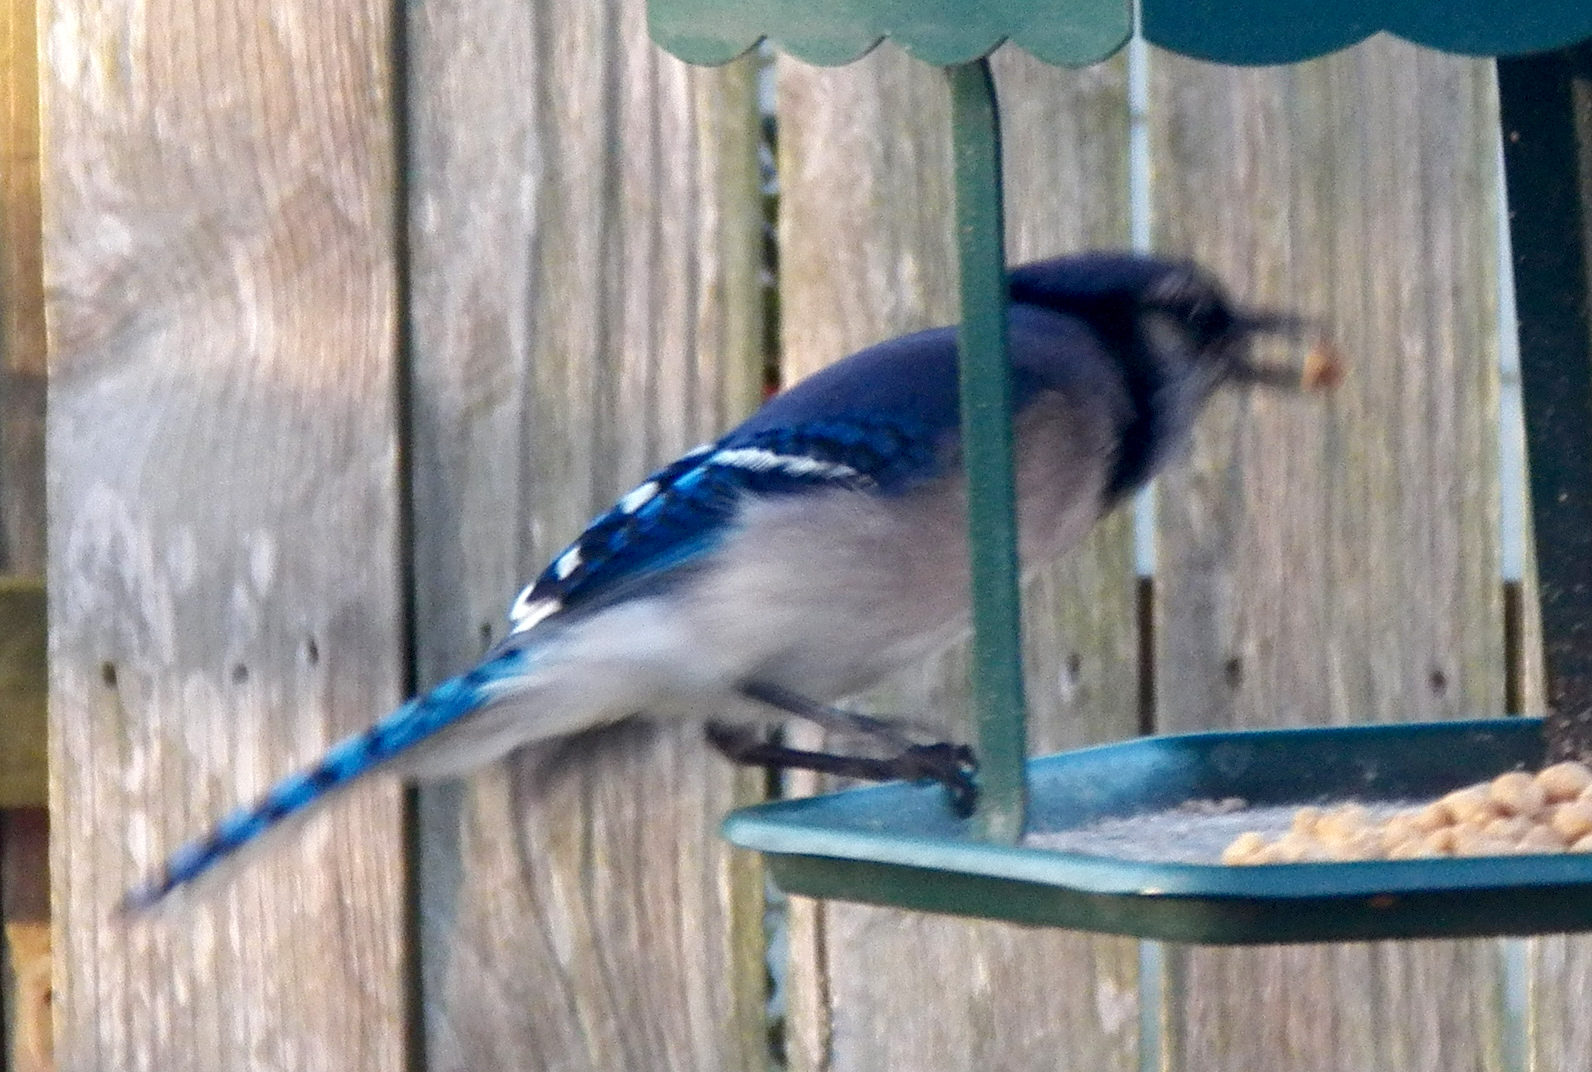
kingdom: Animalia
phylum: Chordata
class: Aves
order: Passeriformes
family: Corvidae
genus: Cyanocitta
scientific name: Cyanocitta cristata
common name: Blue jay
